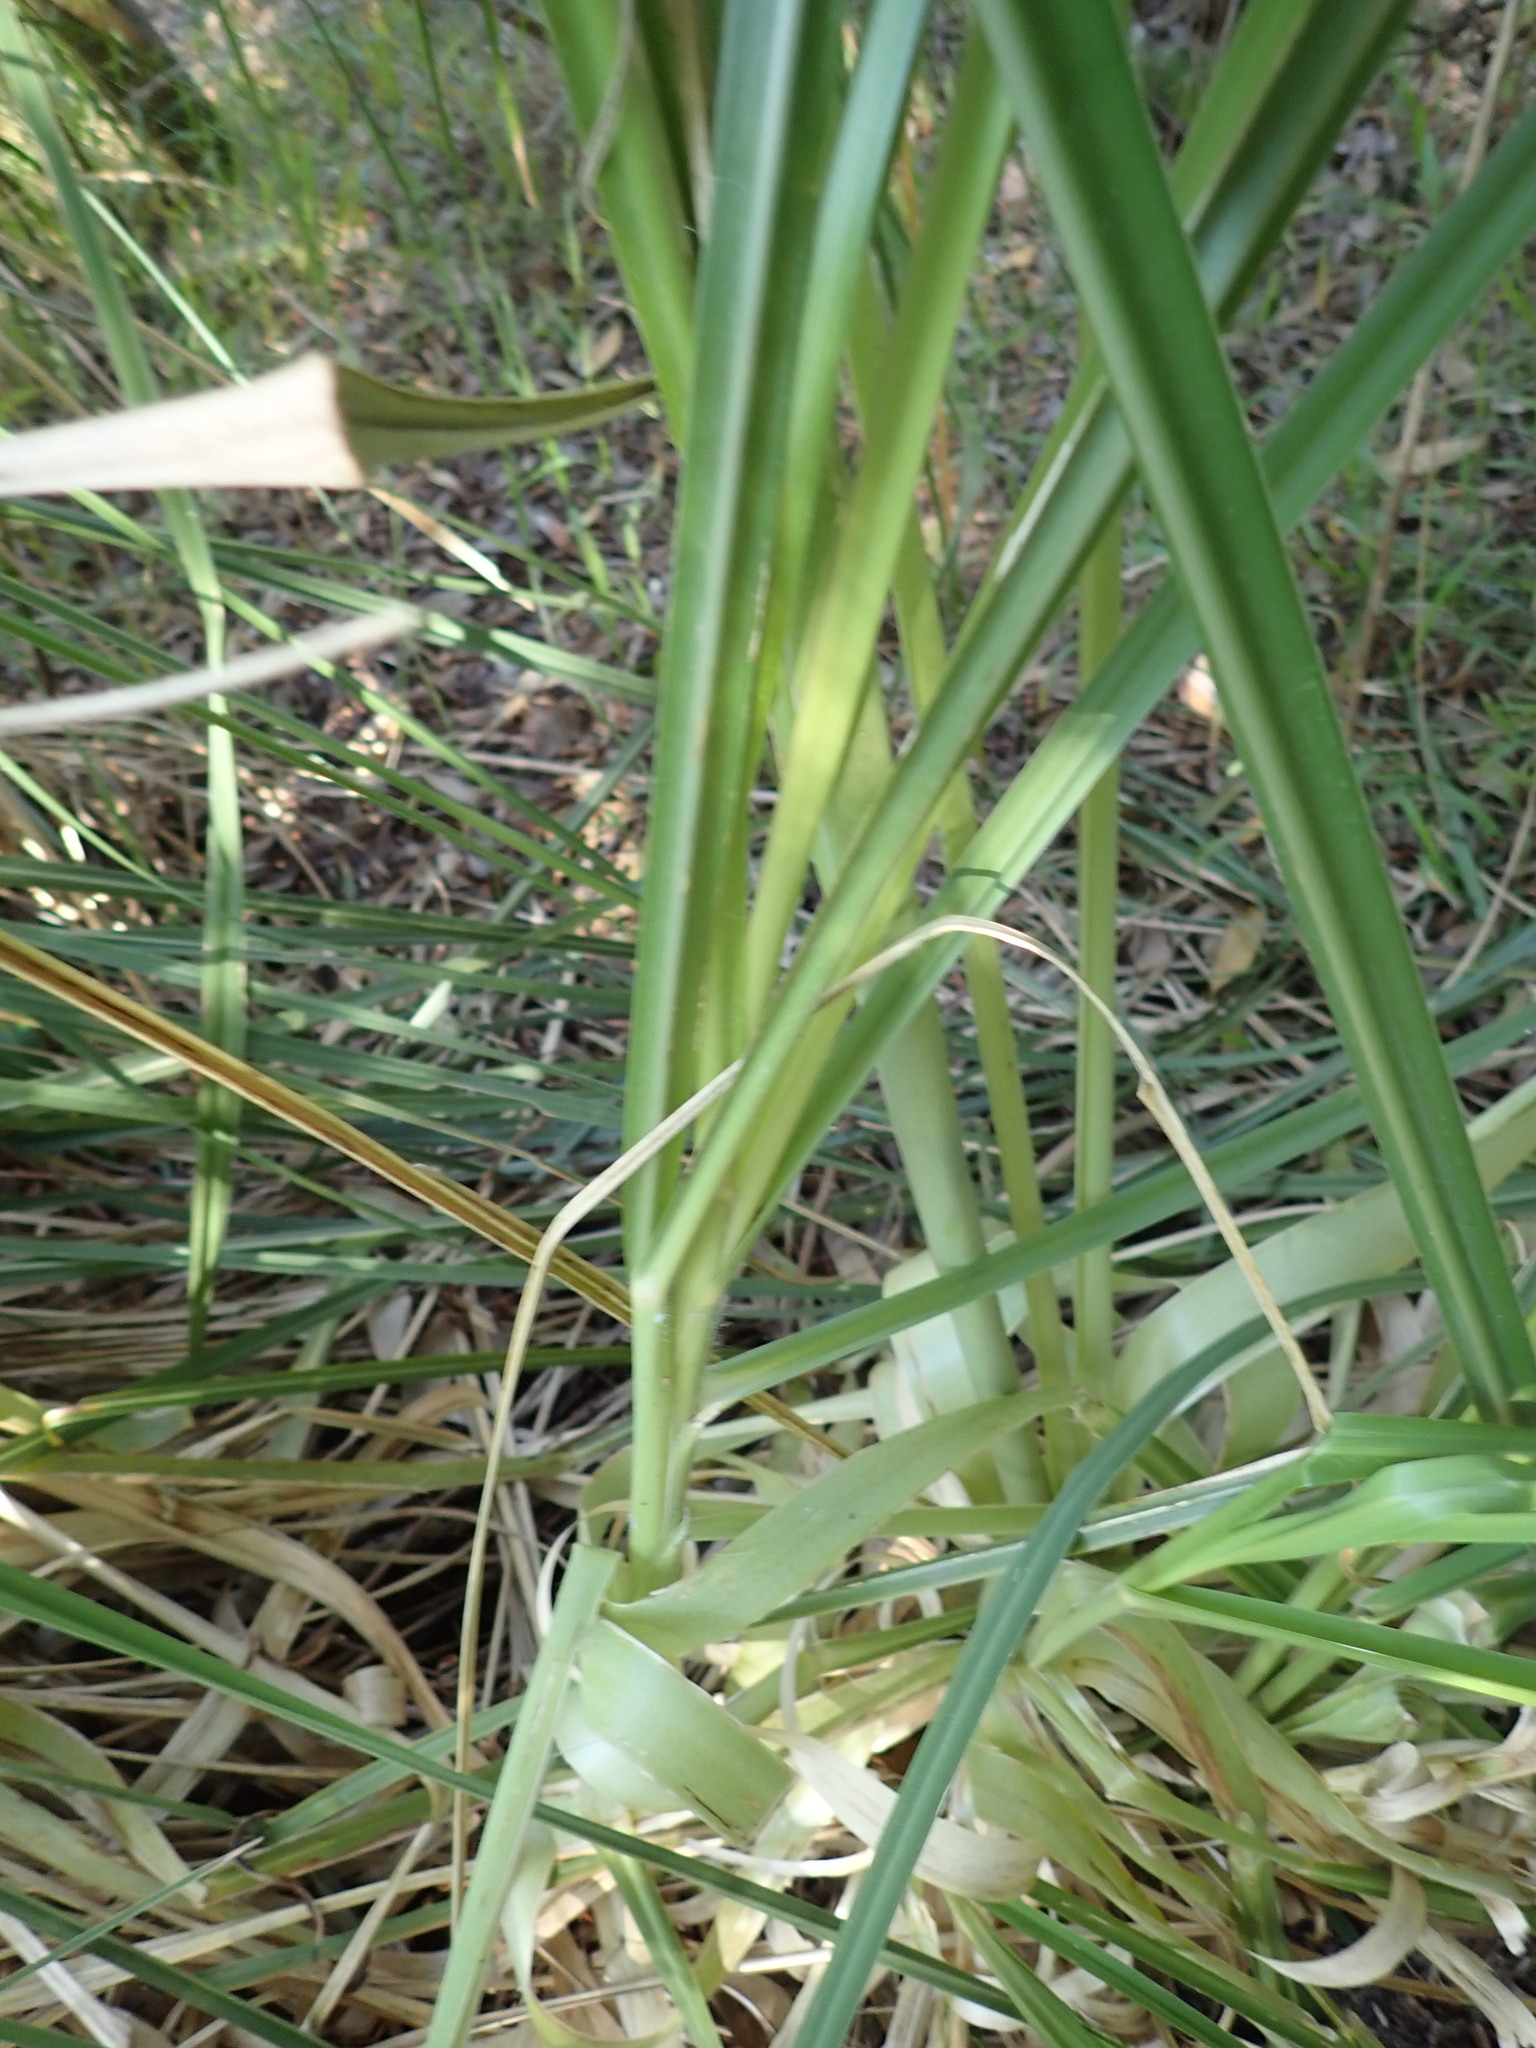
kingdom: Plantae
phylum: Tracheophyta
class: Liliopsida
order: Poales
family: Poaceae
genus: Cortaderia
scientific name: Cortaderia selloana
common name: Uruguayan pampas grass
